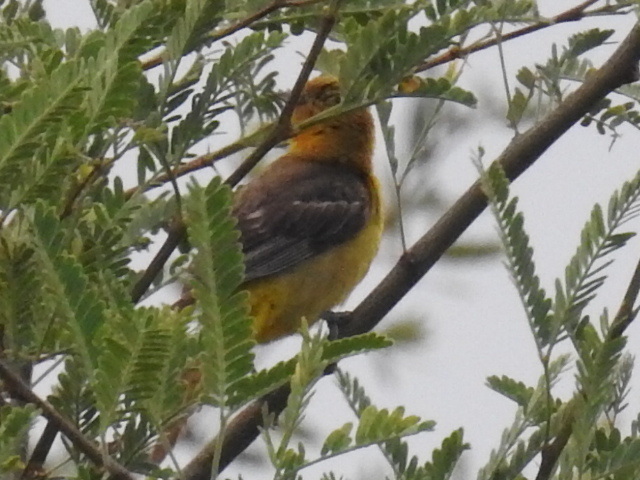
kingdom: Animalia
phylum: Chordata
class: Aves
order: Passeriformes
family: Icteridae
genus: Icterus
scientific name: Icterus cucullatus
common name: Hooded oriole
